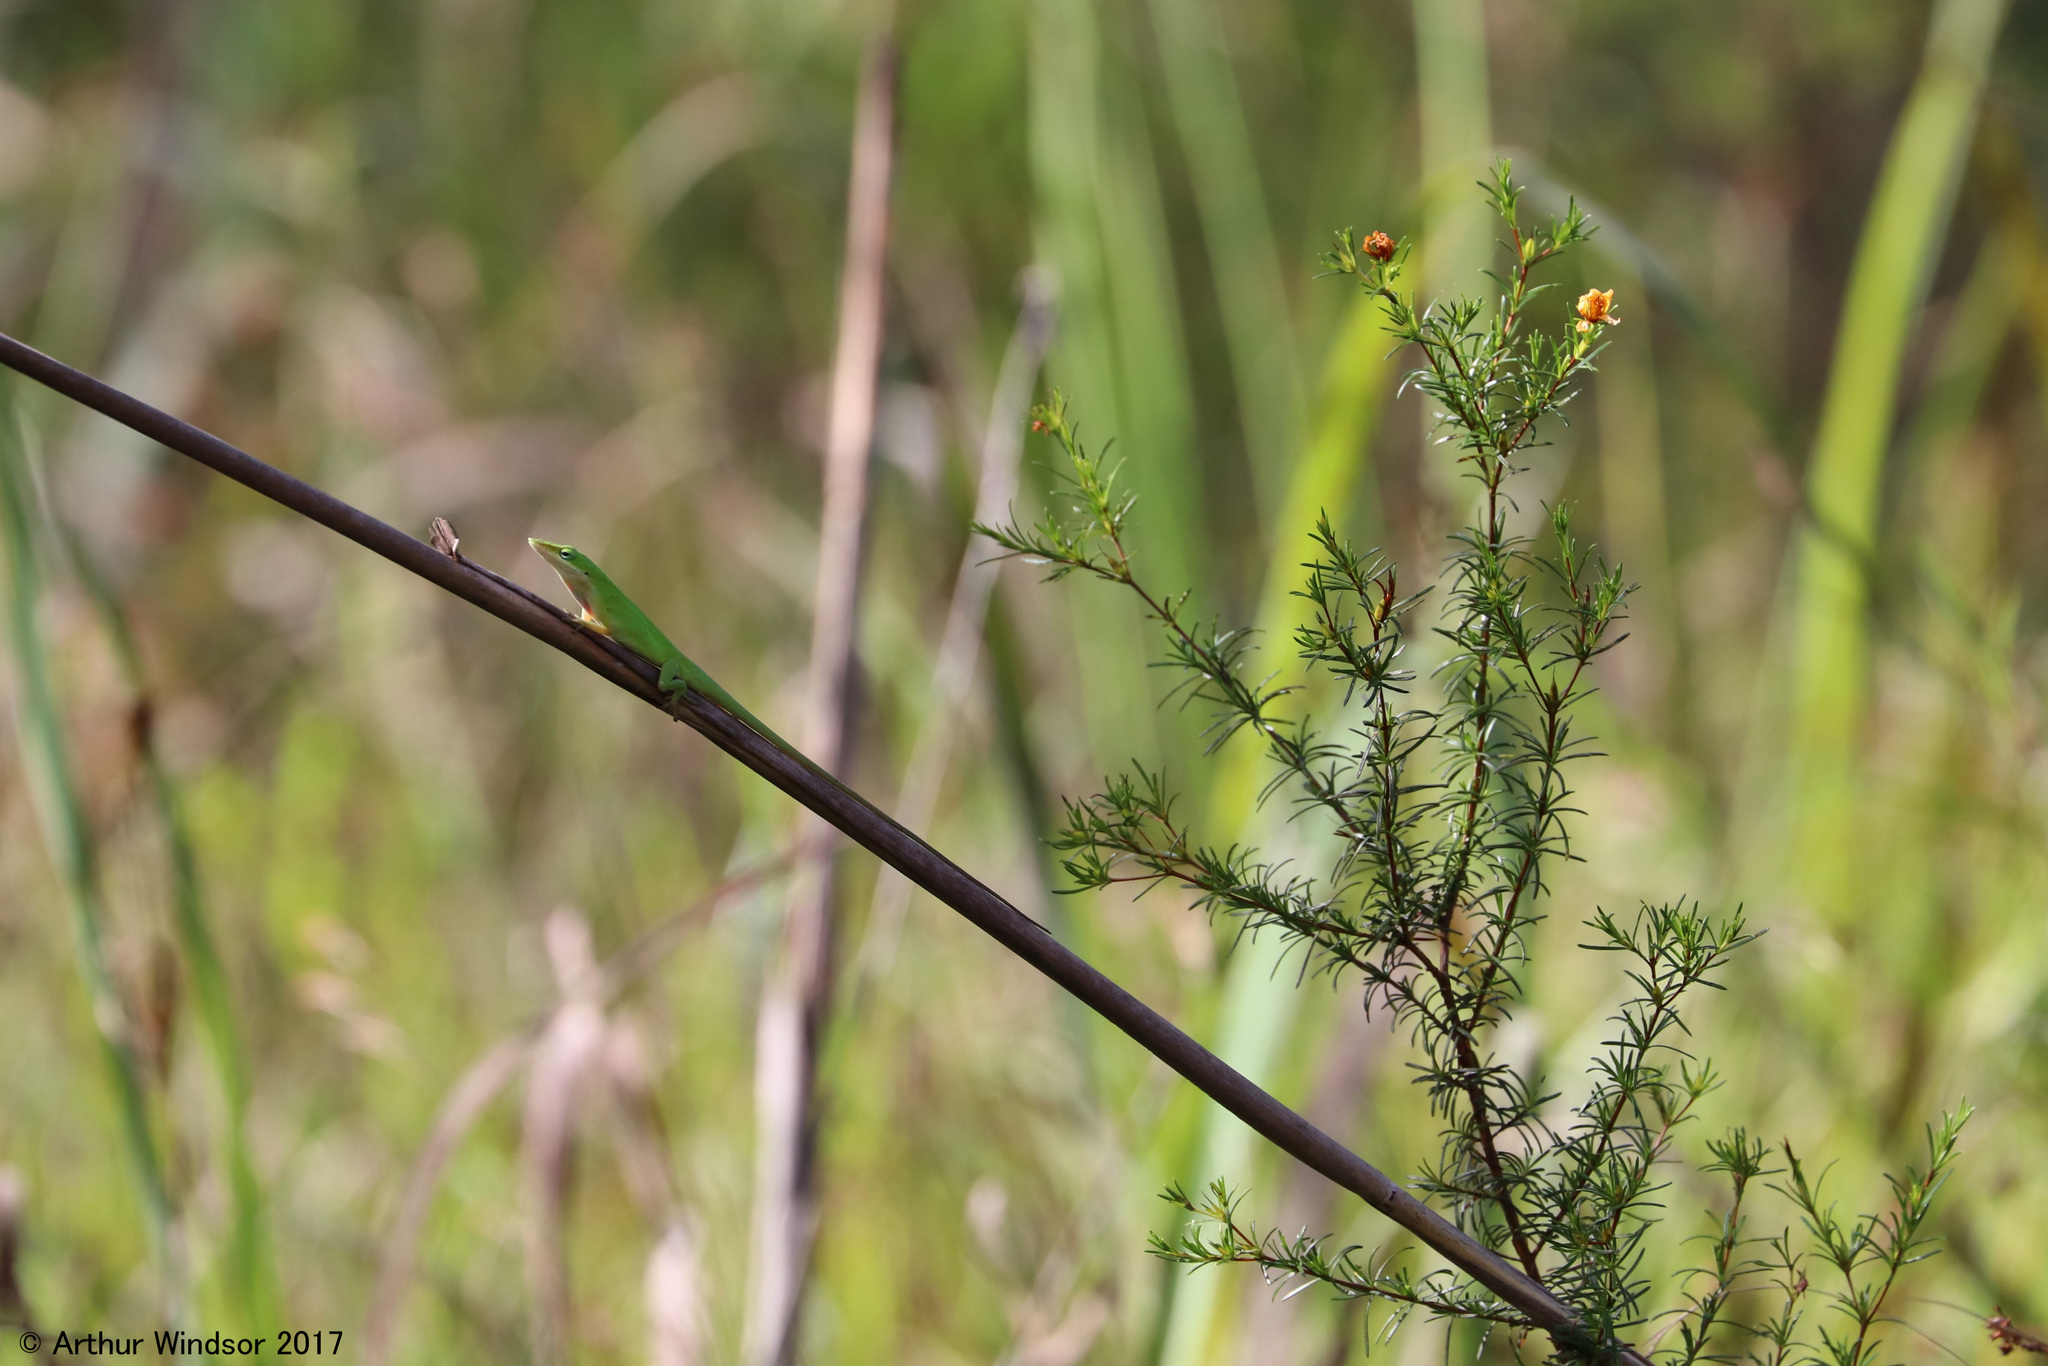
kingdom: Animalia
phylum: Chordata
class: Squamata
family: Dactyloidae
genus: Anolis
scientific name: Anolis carolinensis
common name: Green anole
